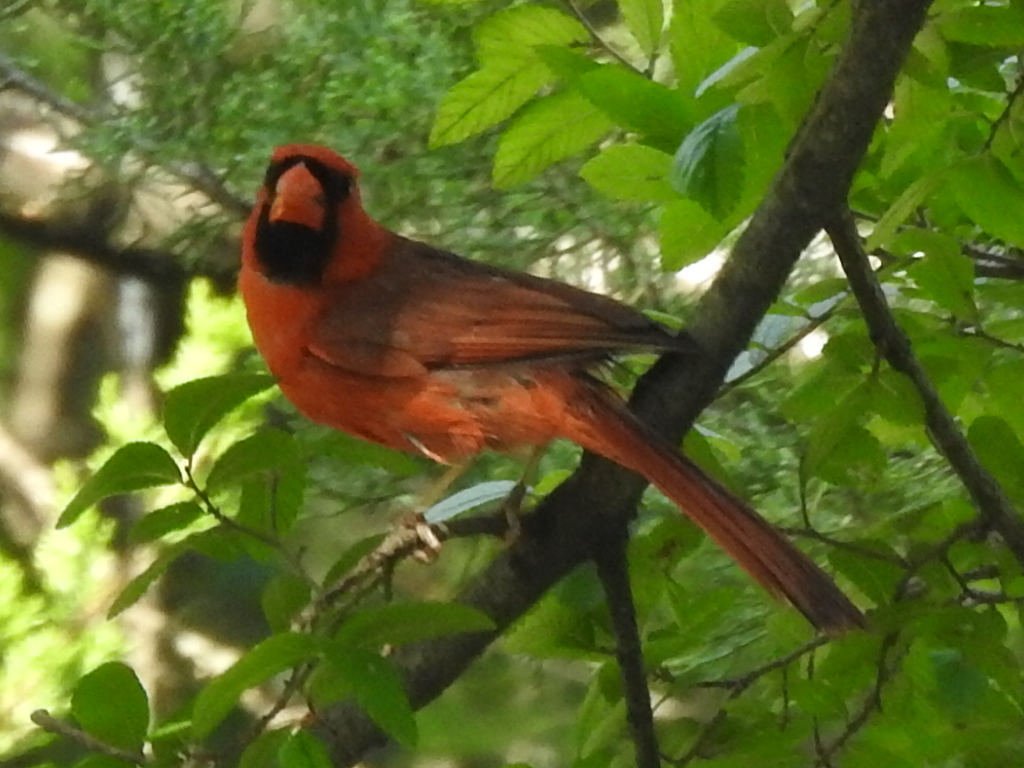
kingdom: Animalia
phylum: Chordata
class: Aves
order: Passeriformes
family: Cardinalidae
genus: Cardinalis
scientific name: Cardinalis cardinalis
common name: Northern cardinal
